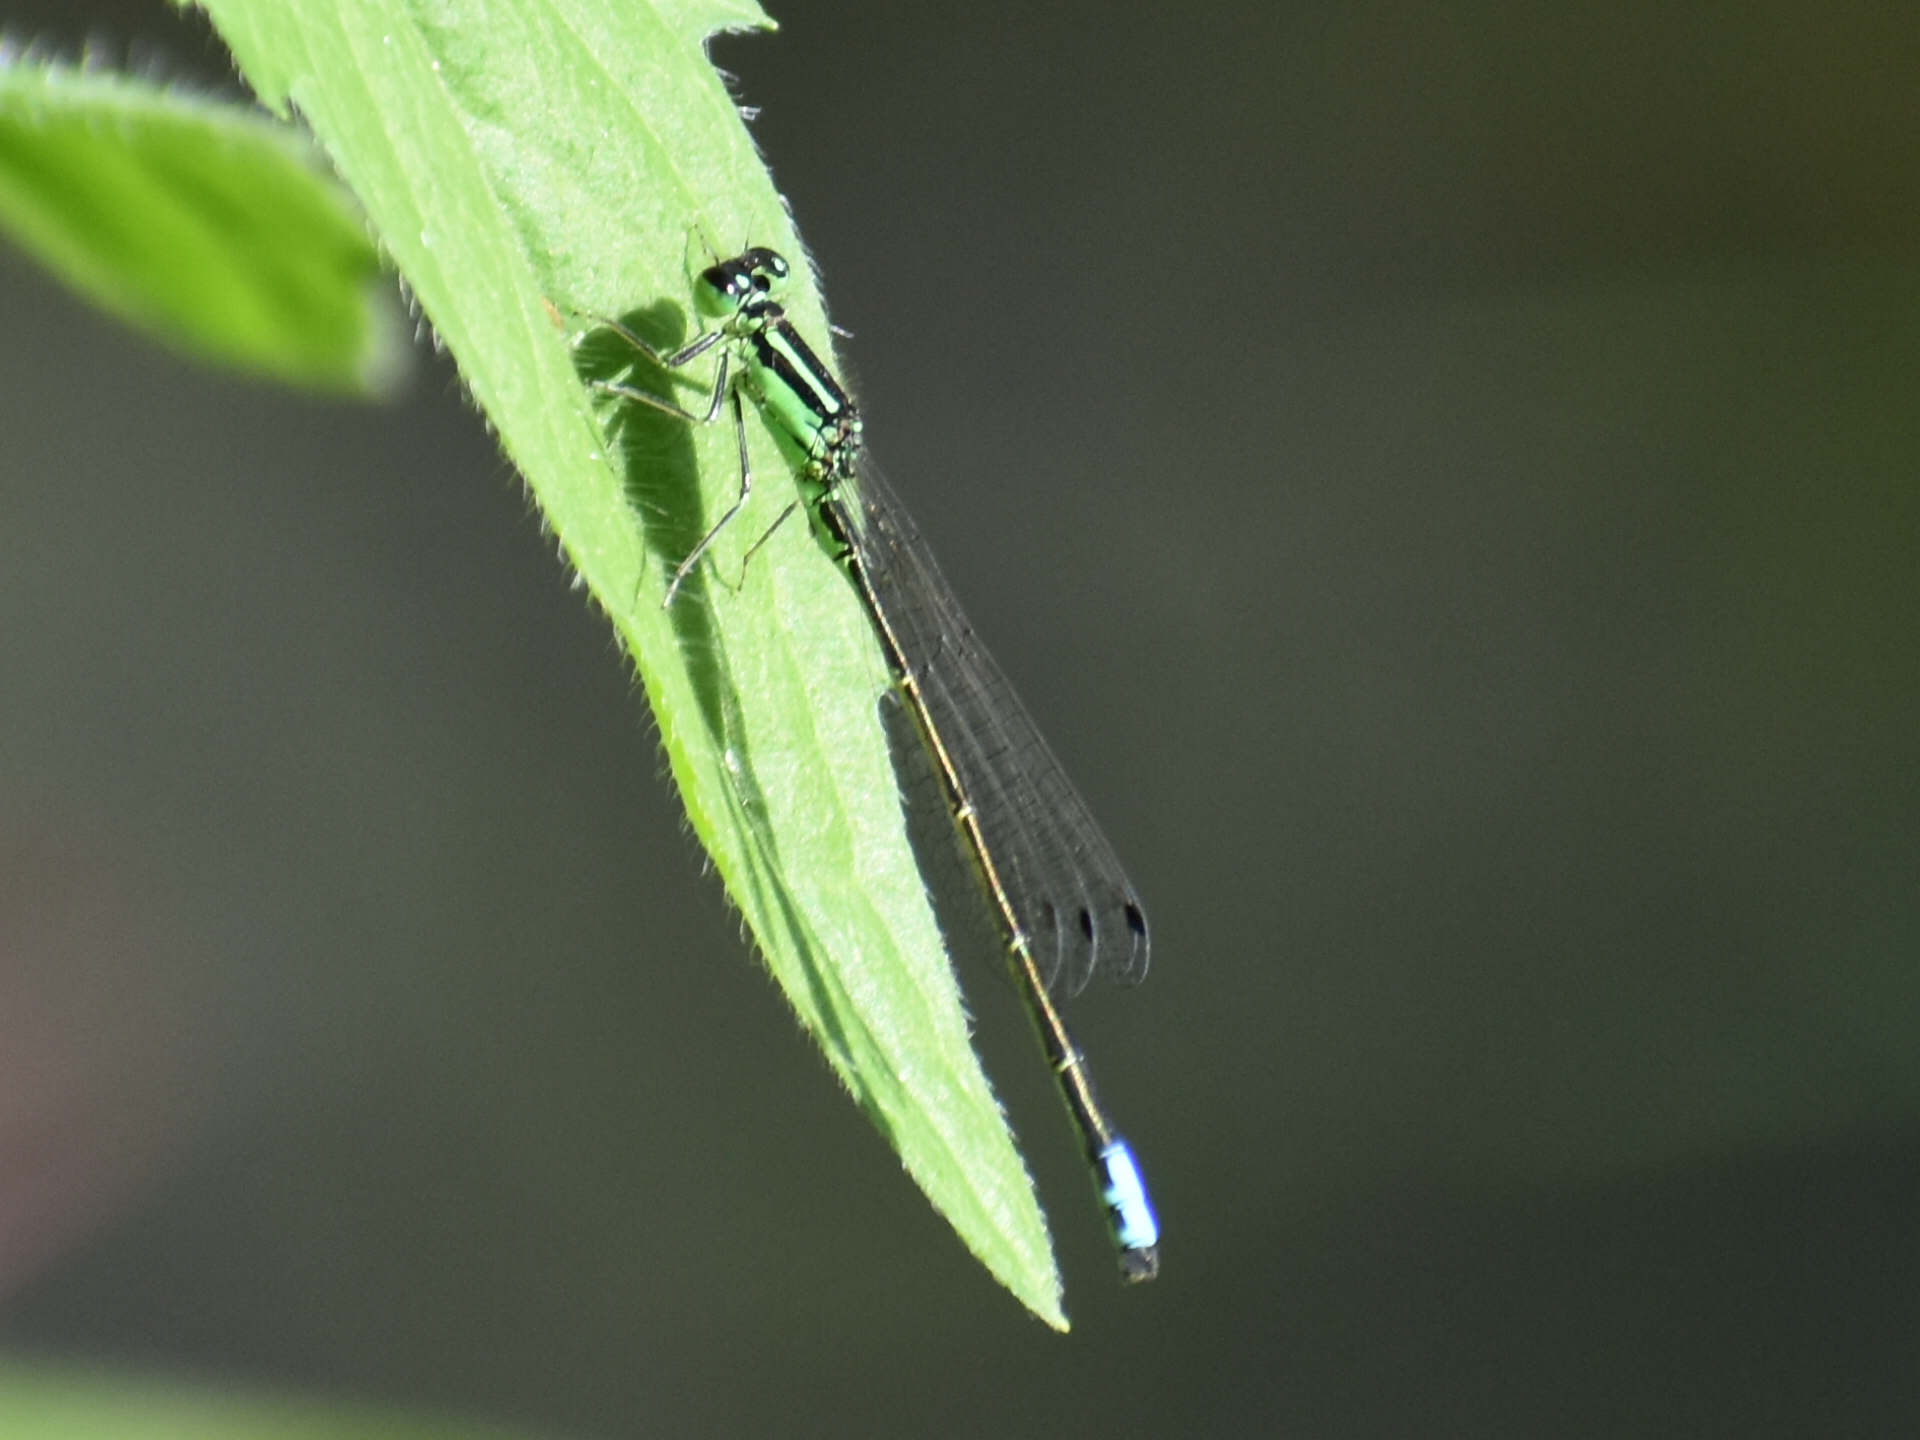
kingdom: Animalia
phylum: Arthropoda
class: Insecta
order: Odonata
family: Coenagrionidae
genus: Ischnura
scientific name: Ischnura verticalis
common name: Eastern forktail
